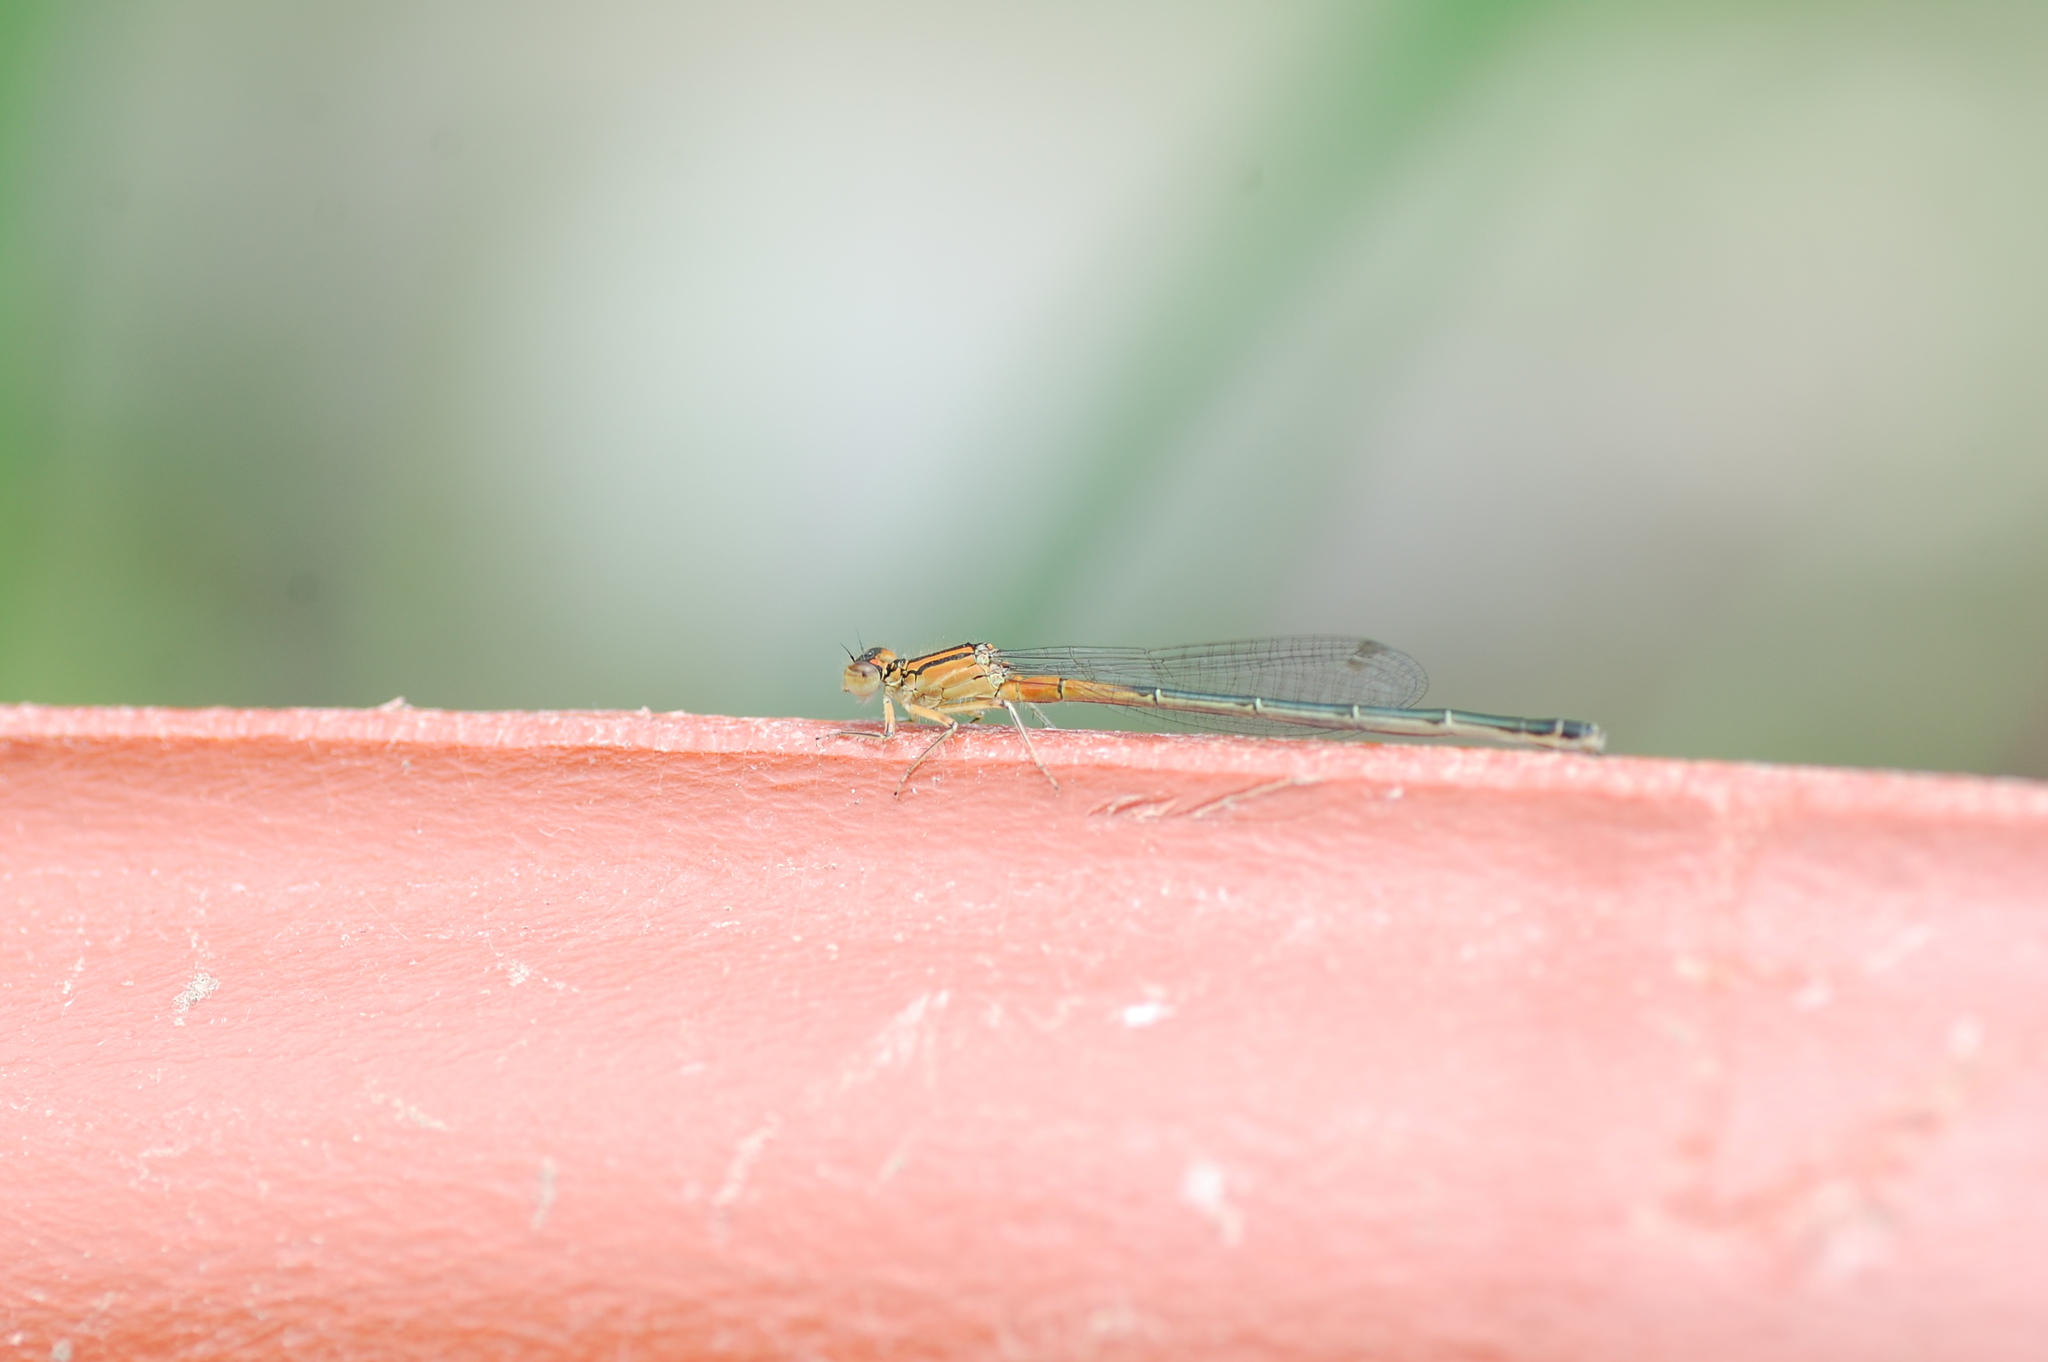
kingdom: Animalia
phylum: Arthropoda
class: Insecta
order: Odonata
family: Coenagrionidae
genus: Ischnura
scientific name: Ischnura verticalis
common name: Eastern forktail
